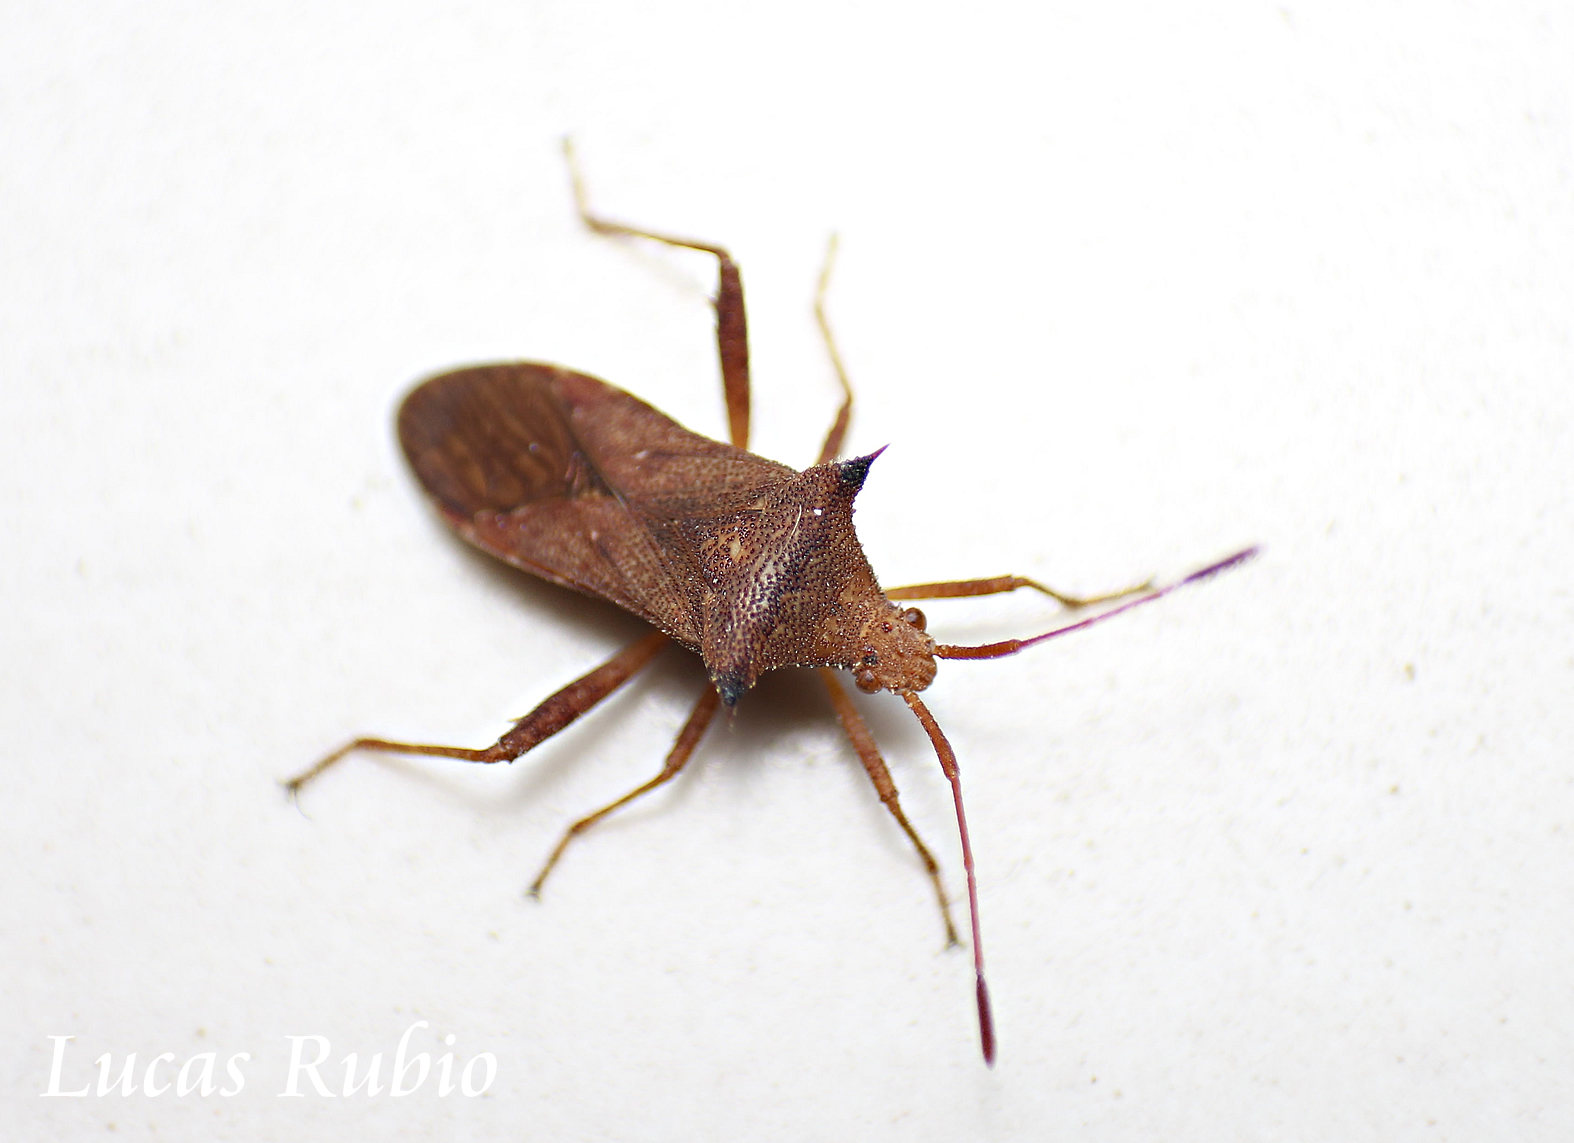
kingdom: Animalia
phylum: Arthropoda
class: Insecta
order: Hemiptera
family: Coreidae
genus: Zicca
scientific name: Zicca stali
